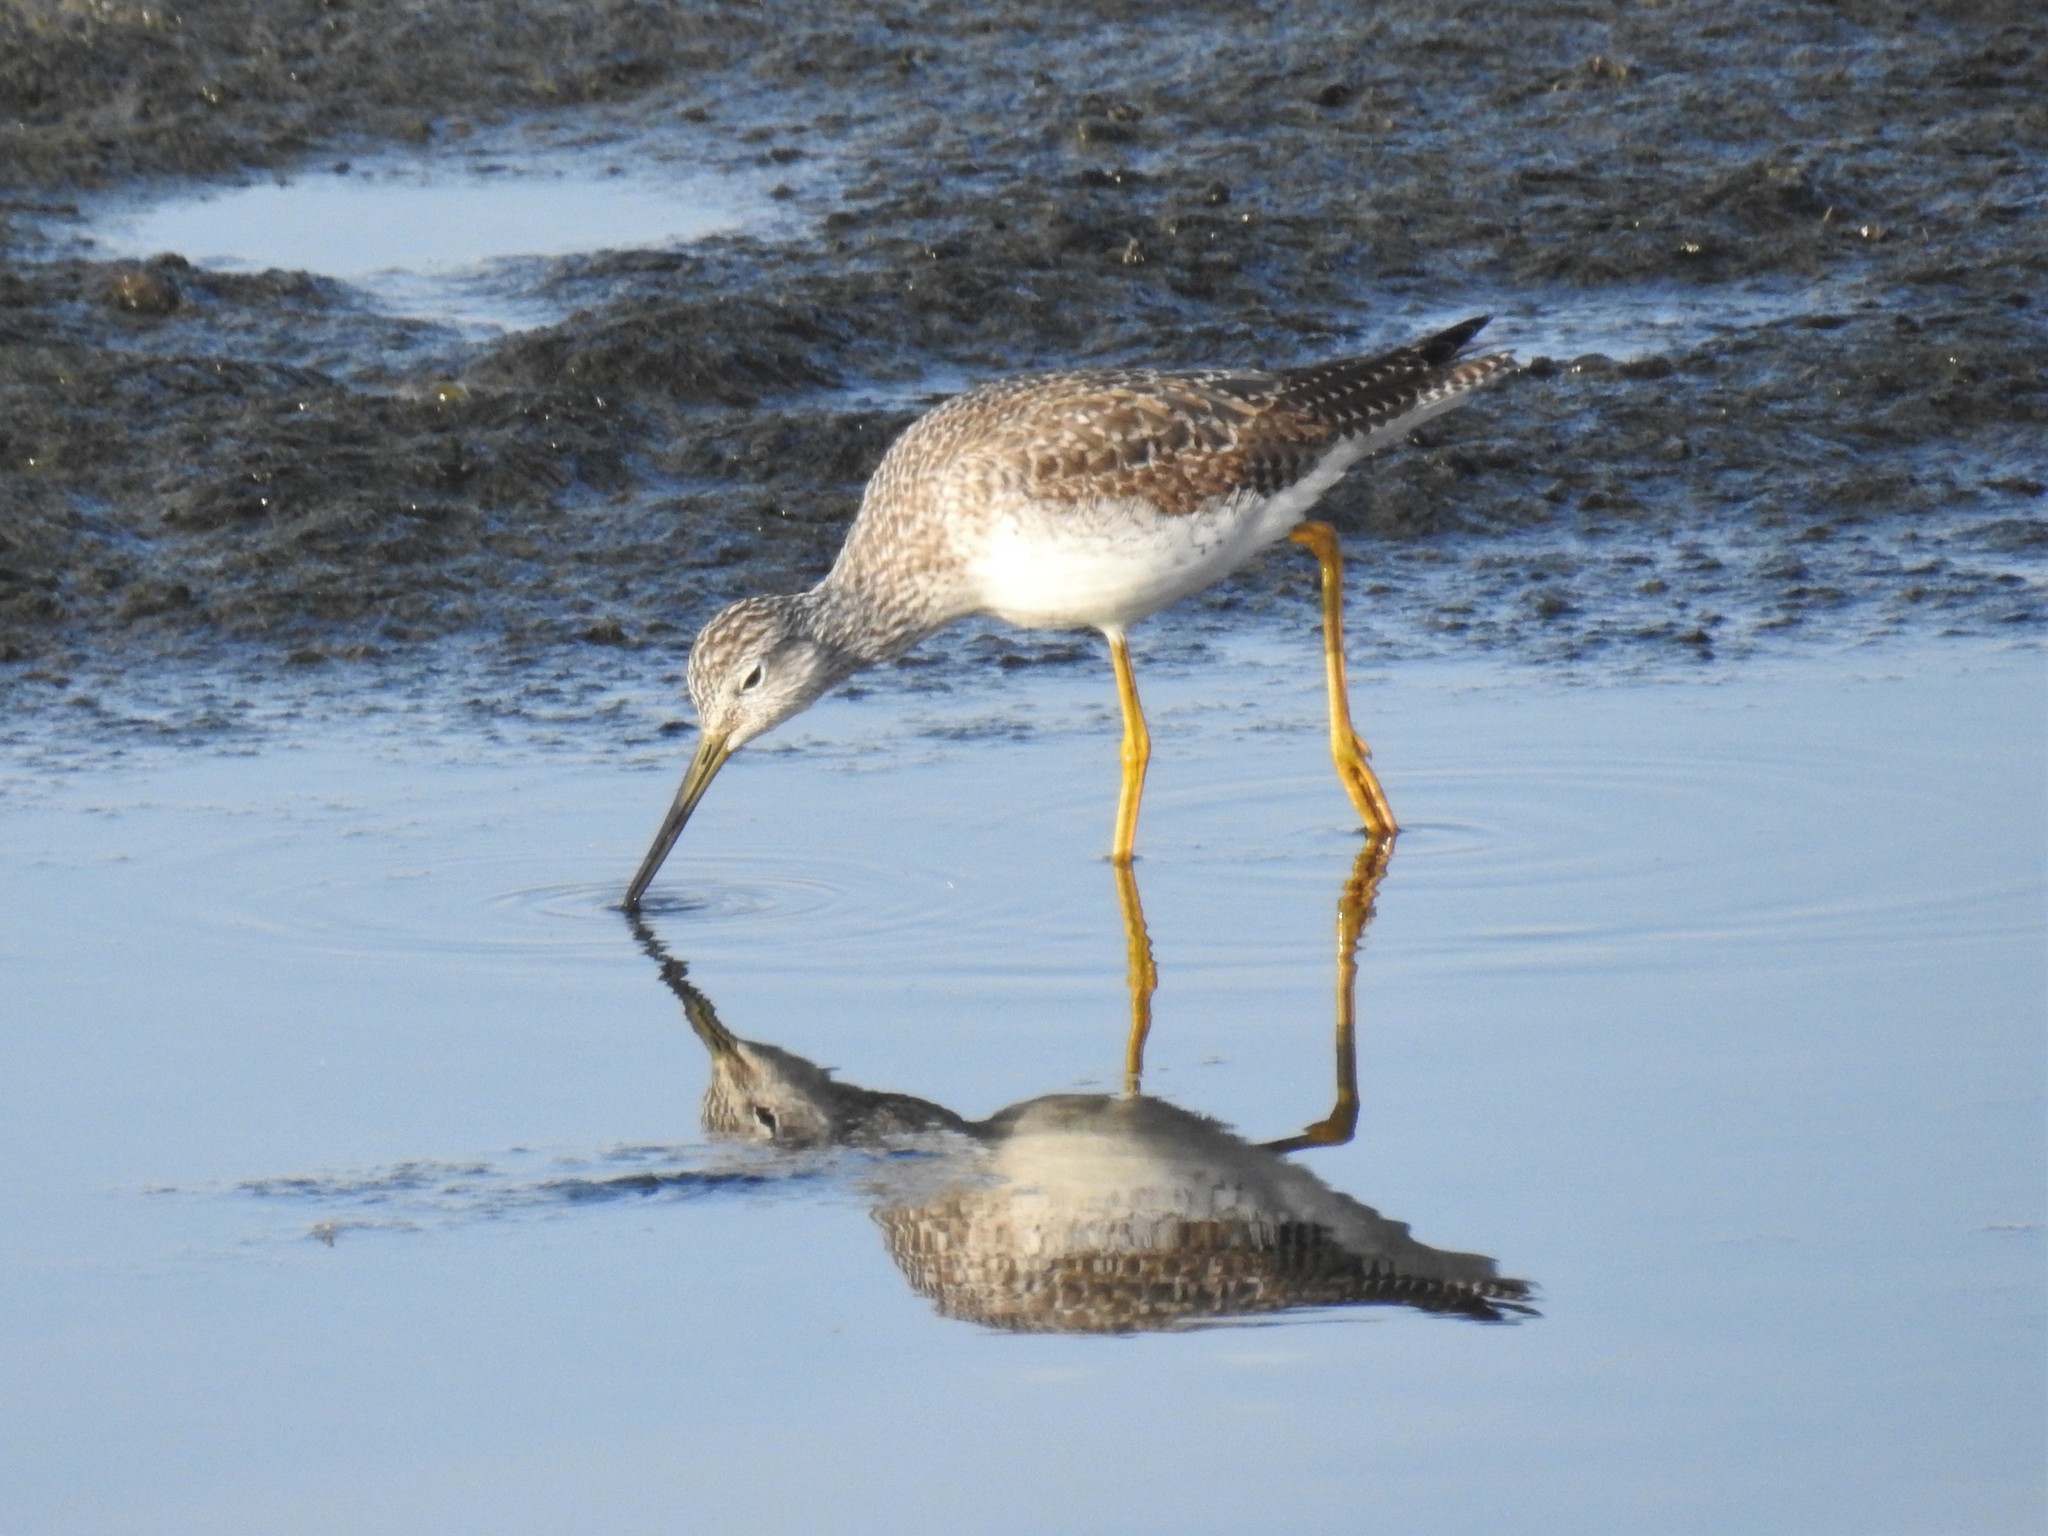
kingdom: Animalia
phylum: Chordata
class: Aves
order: Charadriiformes
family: Scolopacidae
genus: Tringa
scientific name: Tringa melanoleuca
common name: Greater yellowlegs
